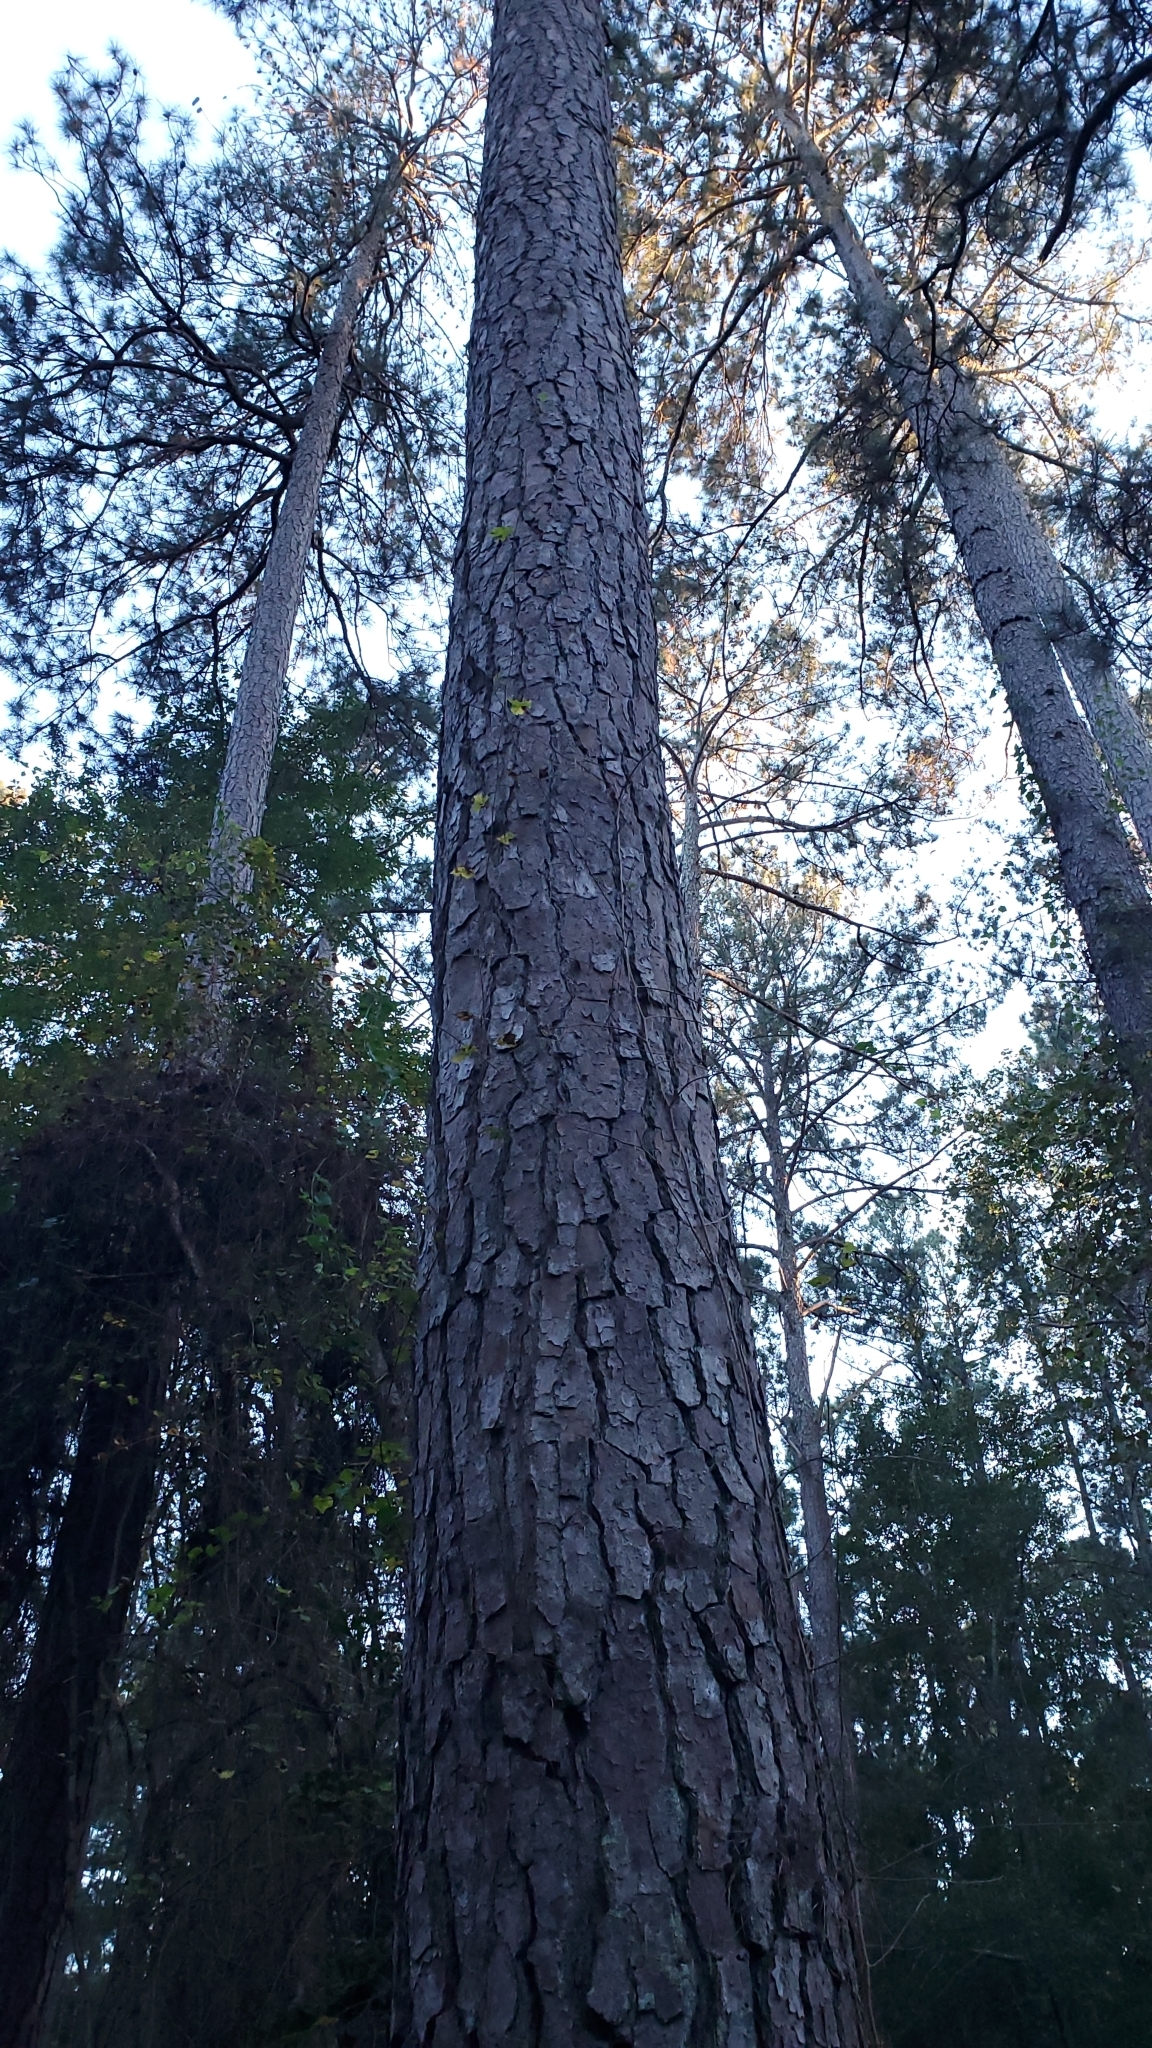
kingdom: Plantae
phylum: Tracheophyta
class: Pinopsida
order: Pinales
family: Pinaceae
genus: Pinus
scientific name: Pinus taeda
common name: Loblolly pine
